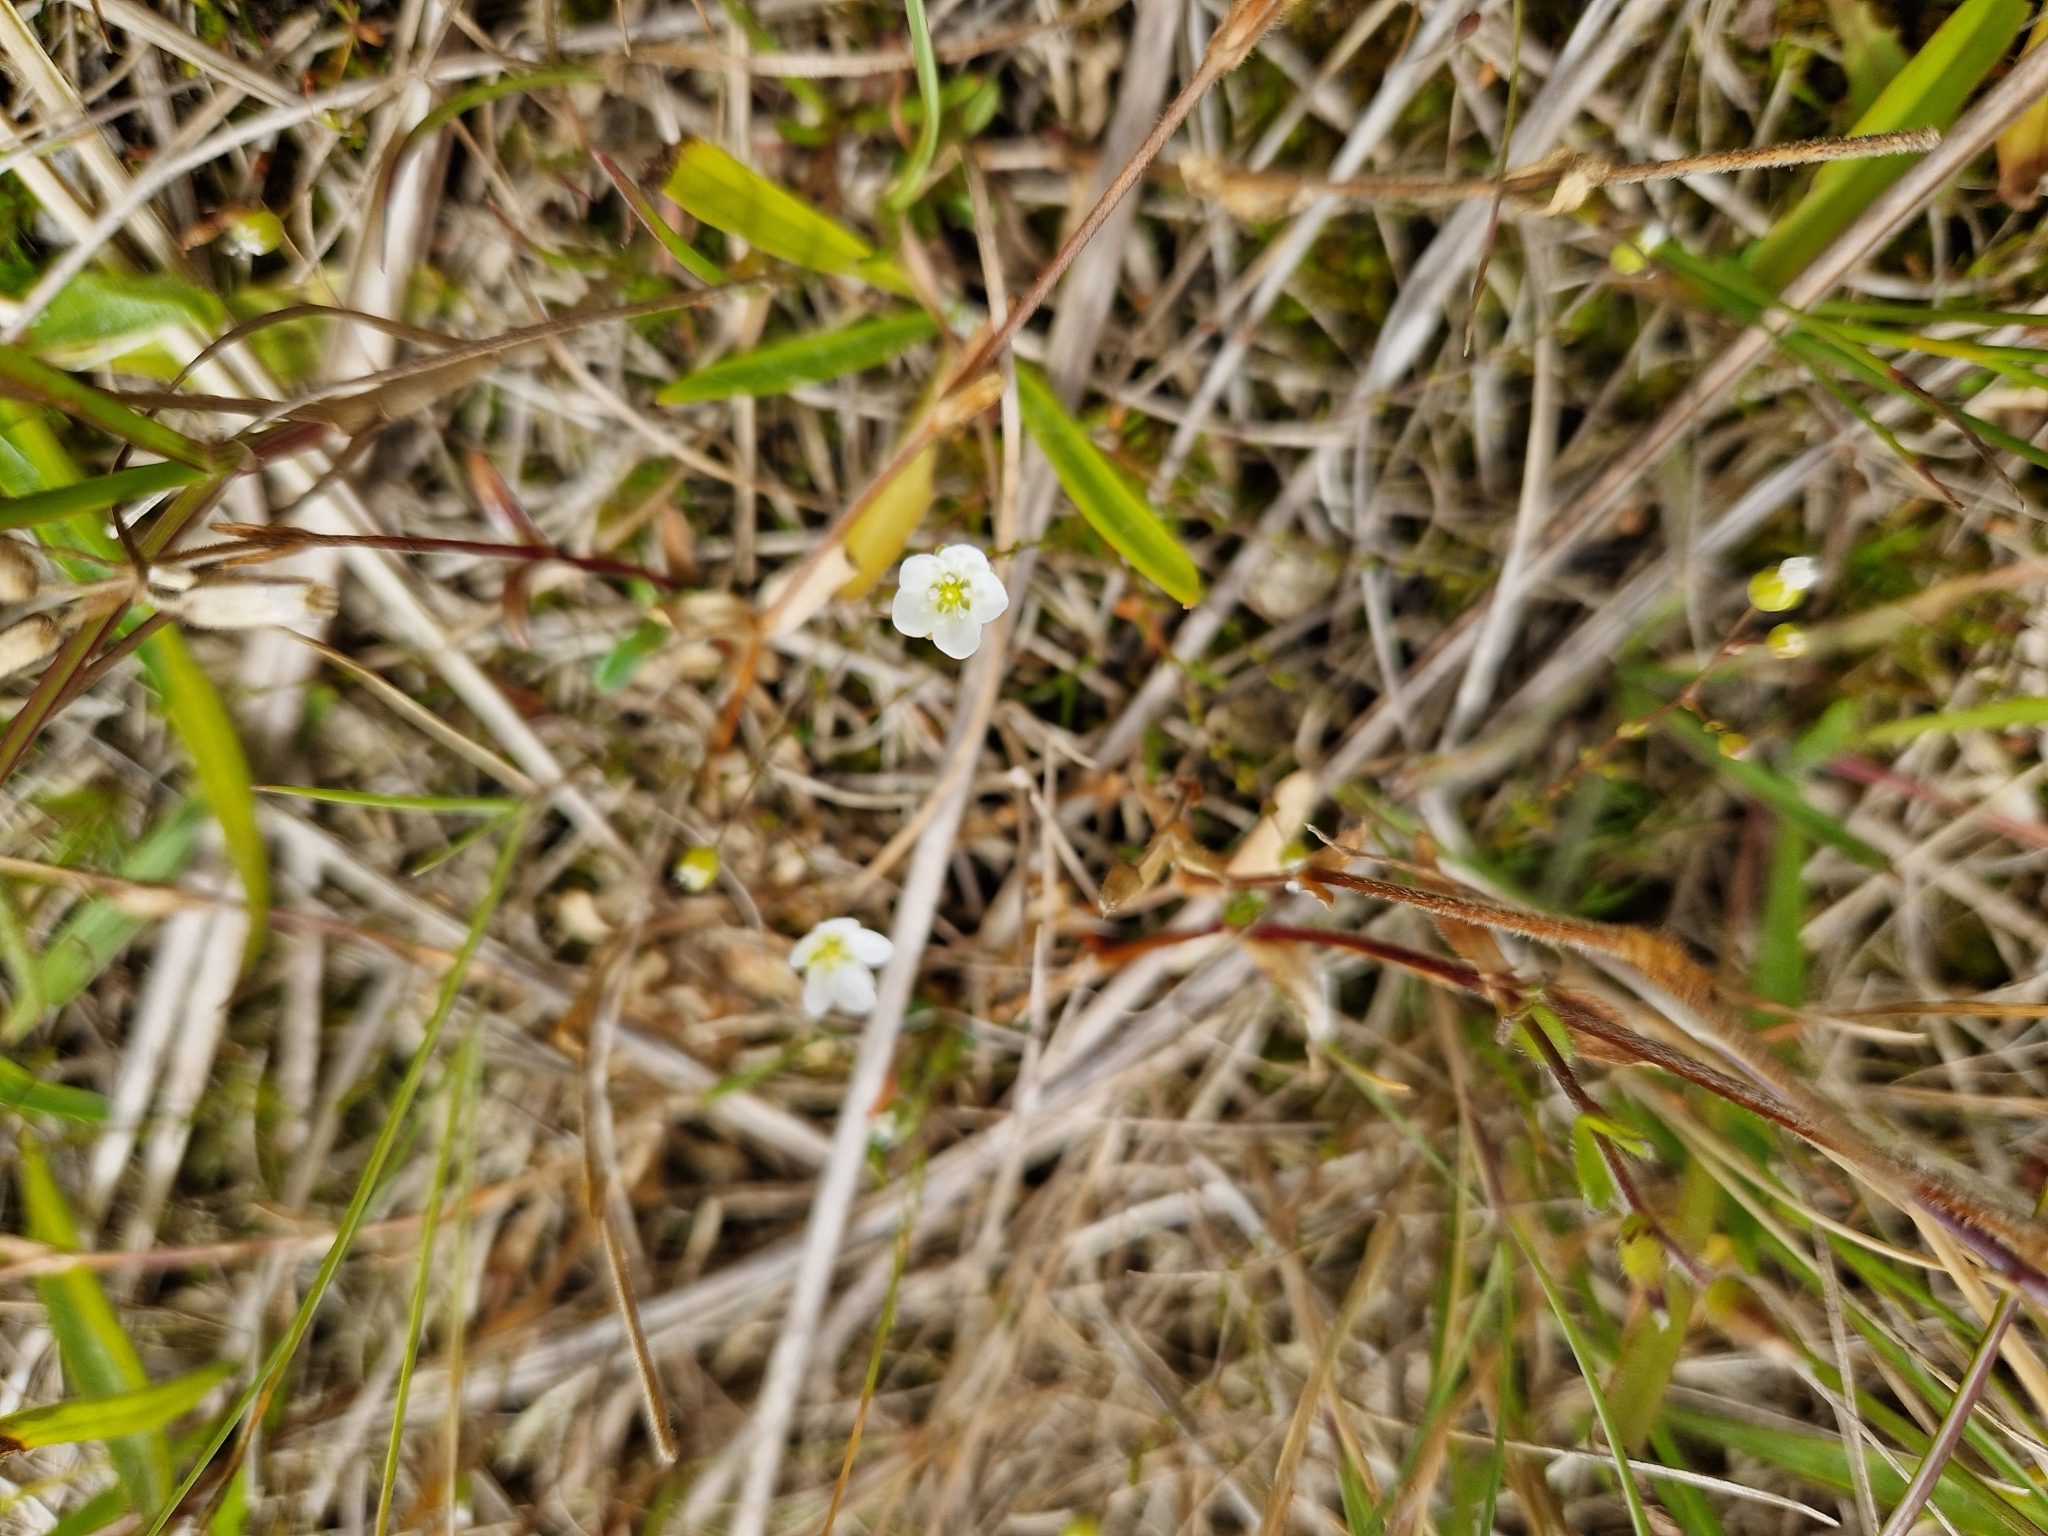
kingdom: Plantae
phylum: Tracheophyta
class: Magnoliopsida
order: Caryophyllales
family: Caryophyllaceae
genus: Sagina
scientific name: Sagina nodosa
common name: Knotted pearlwort
